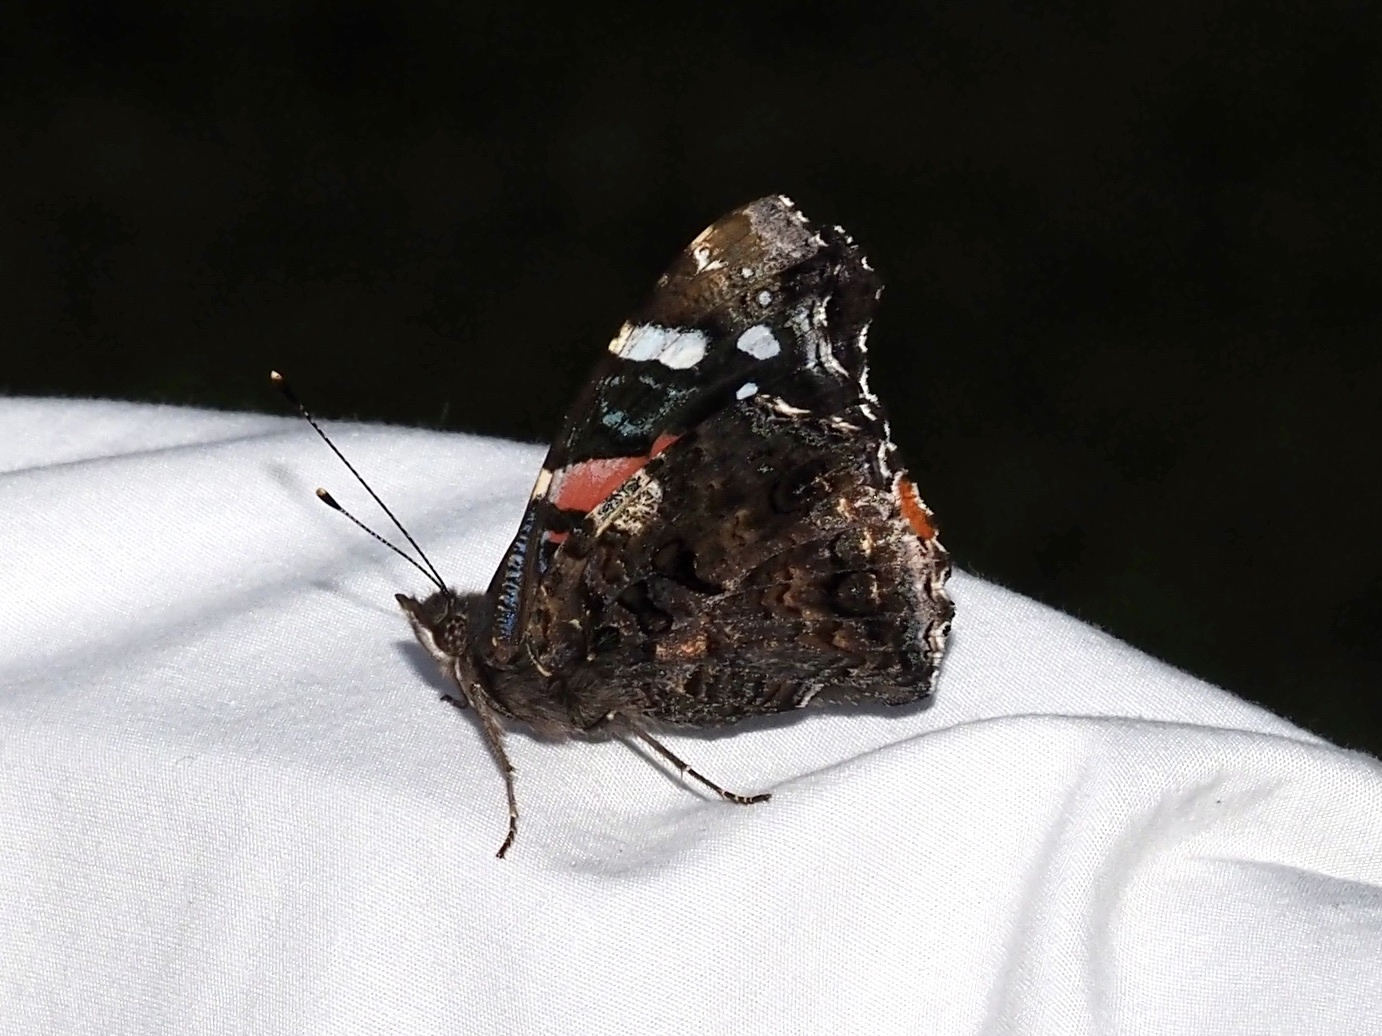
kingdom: Animalia
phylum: Arthropoda
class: Insecta
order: Lepidoptera
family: Nymphalidae
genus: Vanessa
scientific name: Vanessa atalanta
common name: Red admiral
